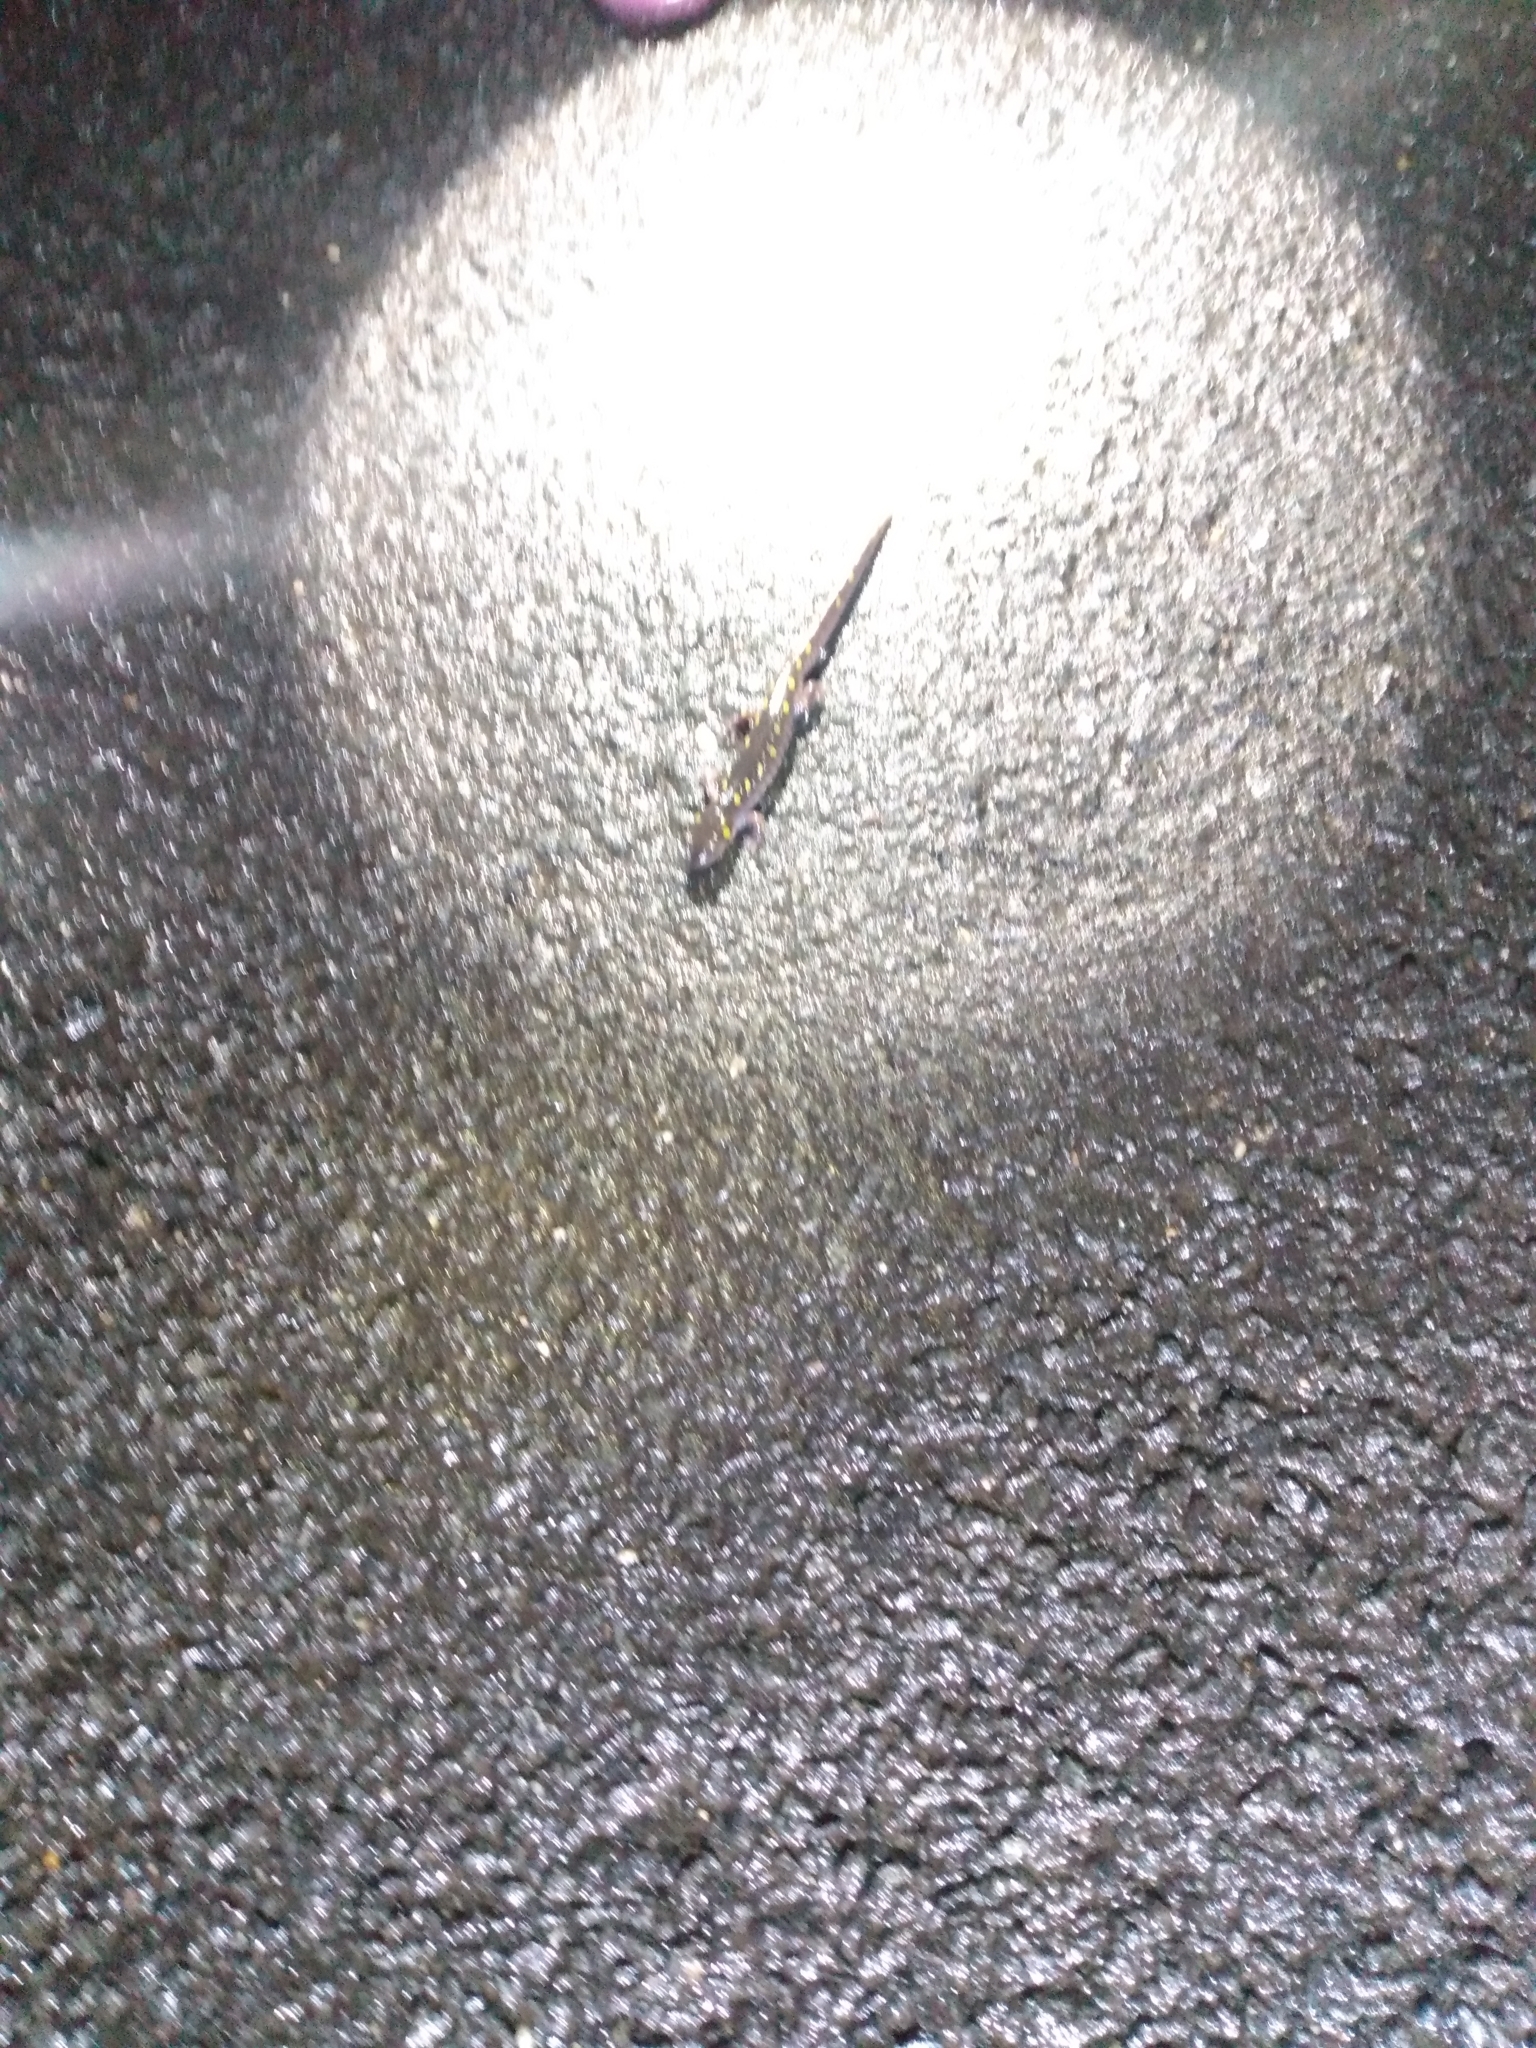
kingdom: Animalia
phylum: Chordata
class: Amphibia
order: Caudata
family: Ambystomatidae
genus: Ambystoma
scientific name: Ambystoma maculatum
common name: Spotted salamander
